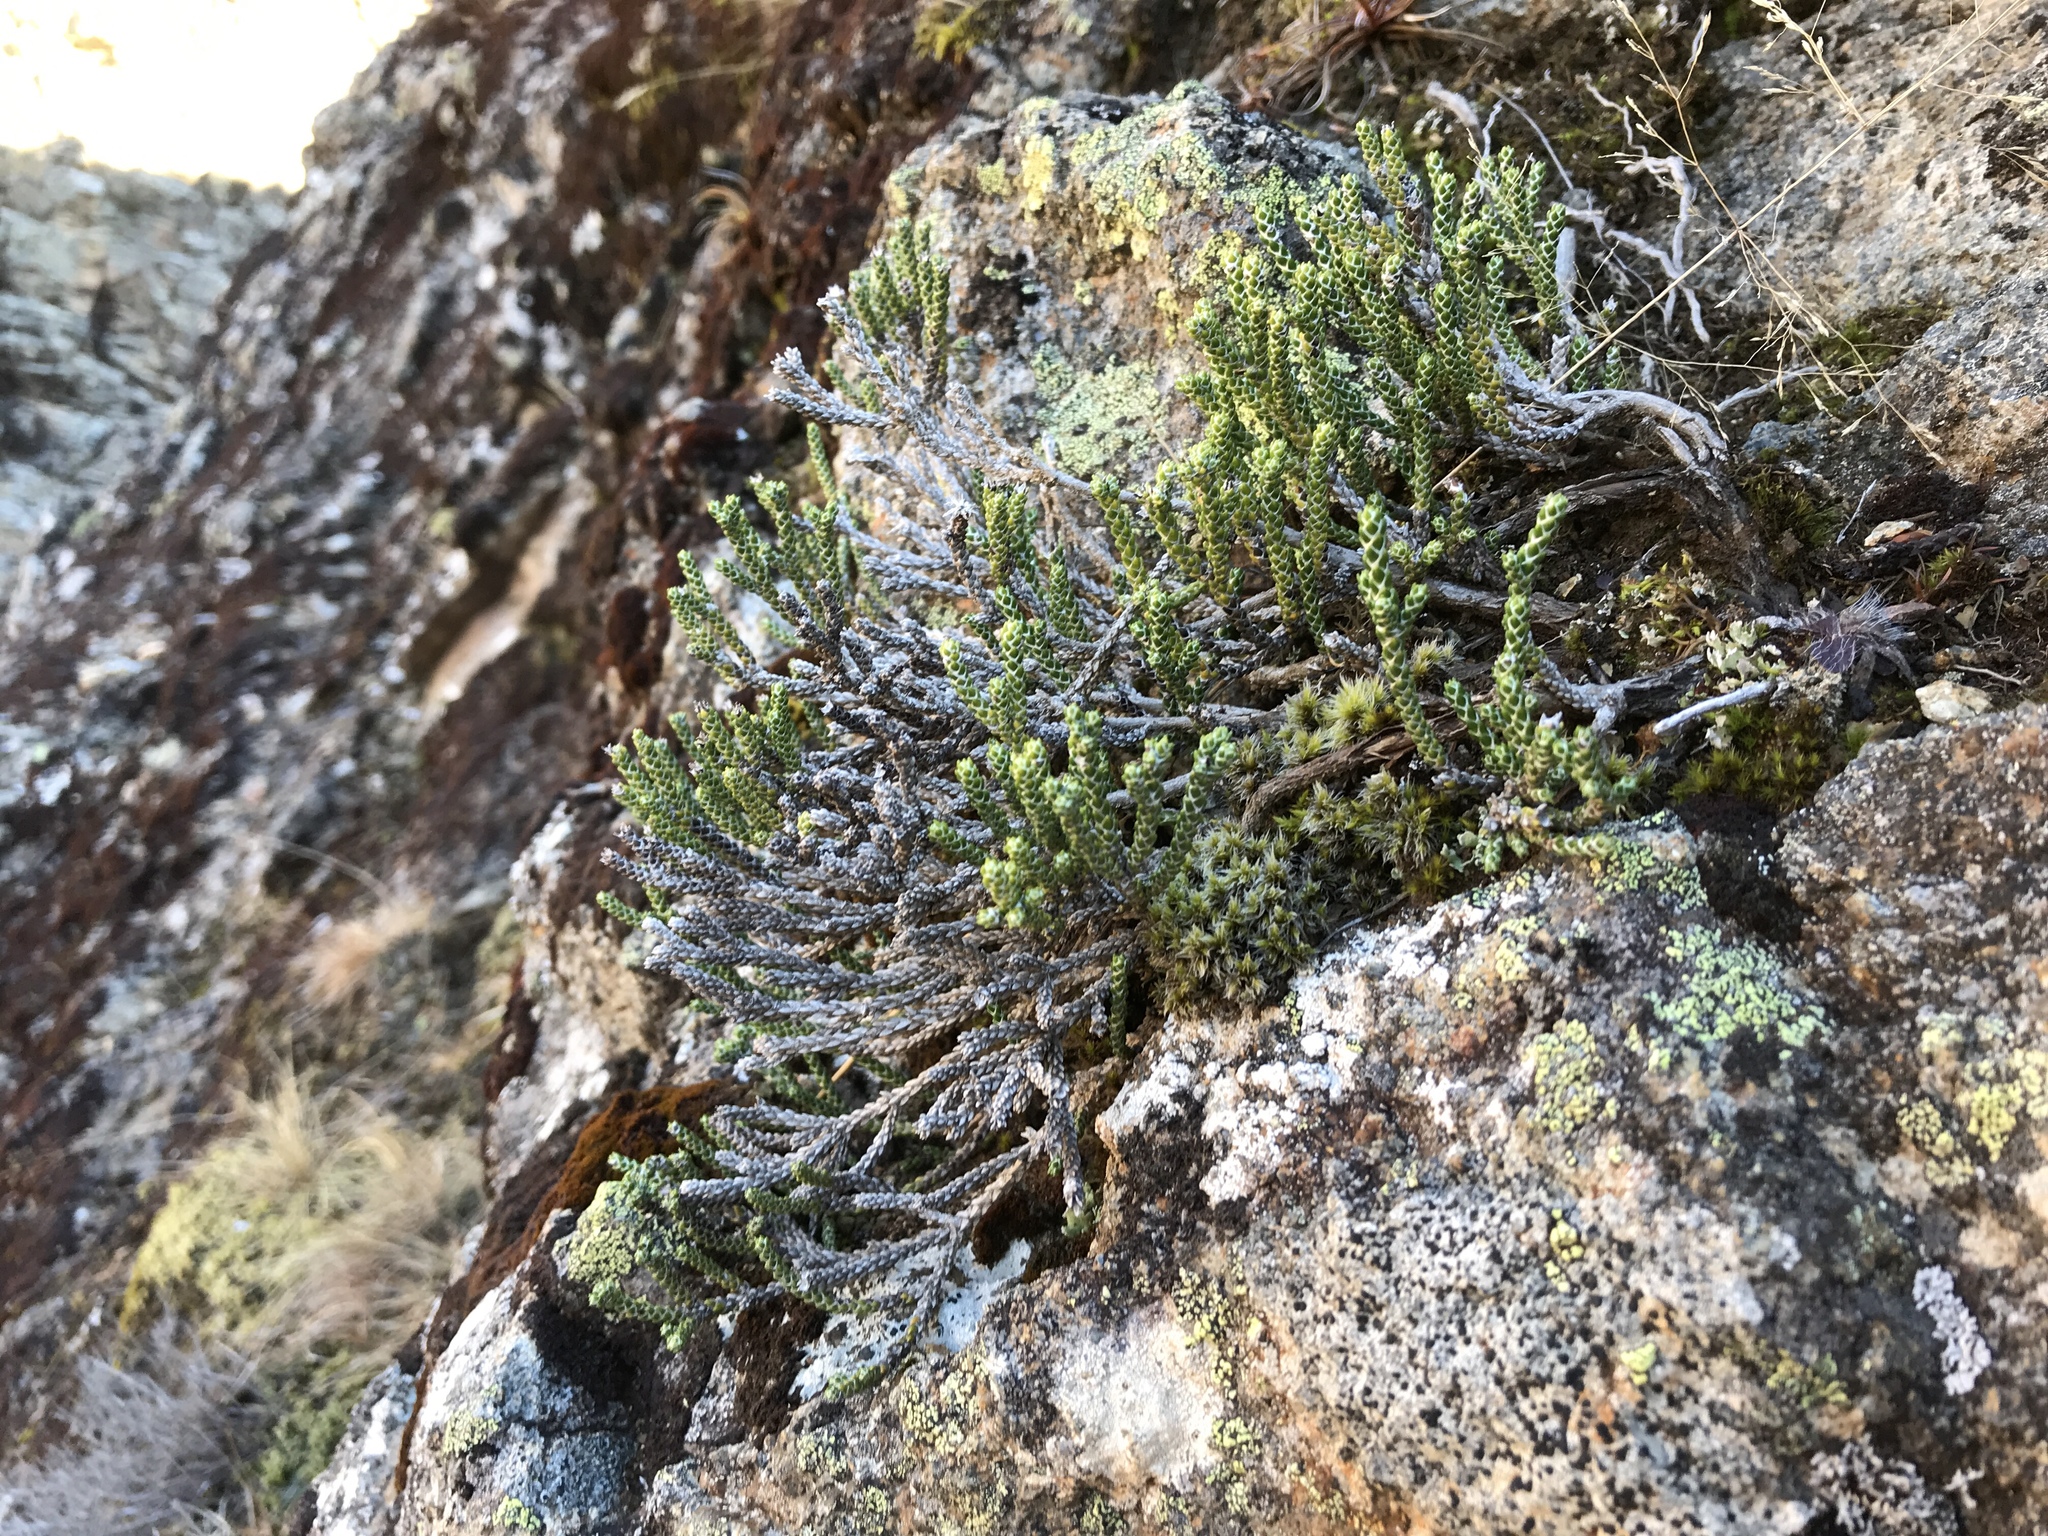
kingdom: Plantae
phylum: Tracheophyta
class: Magnoliopsida
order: Asterales
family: Asteraceae
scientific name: Asteraceae
